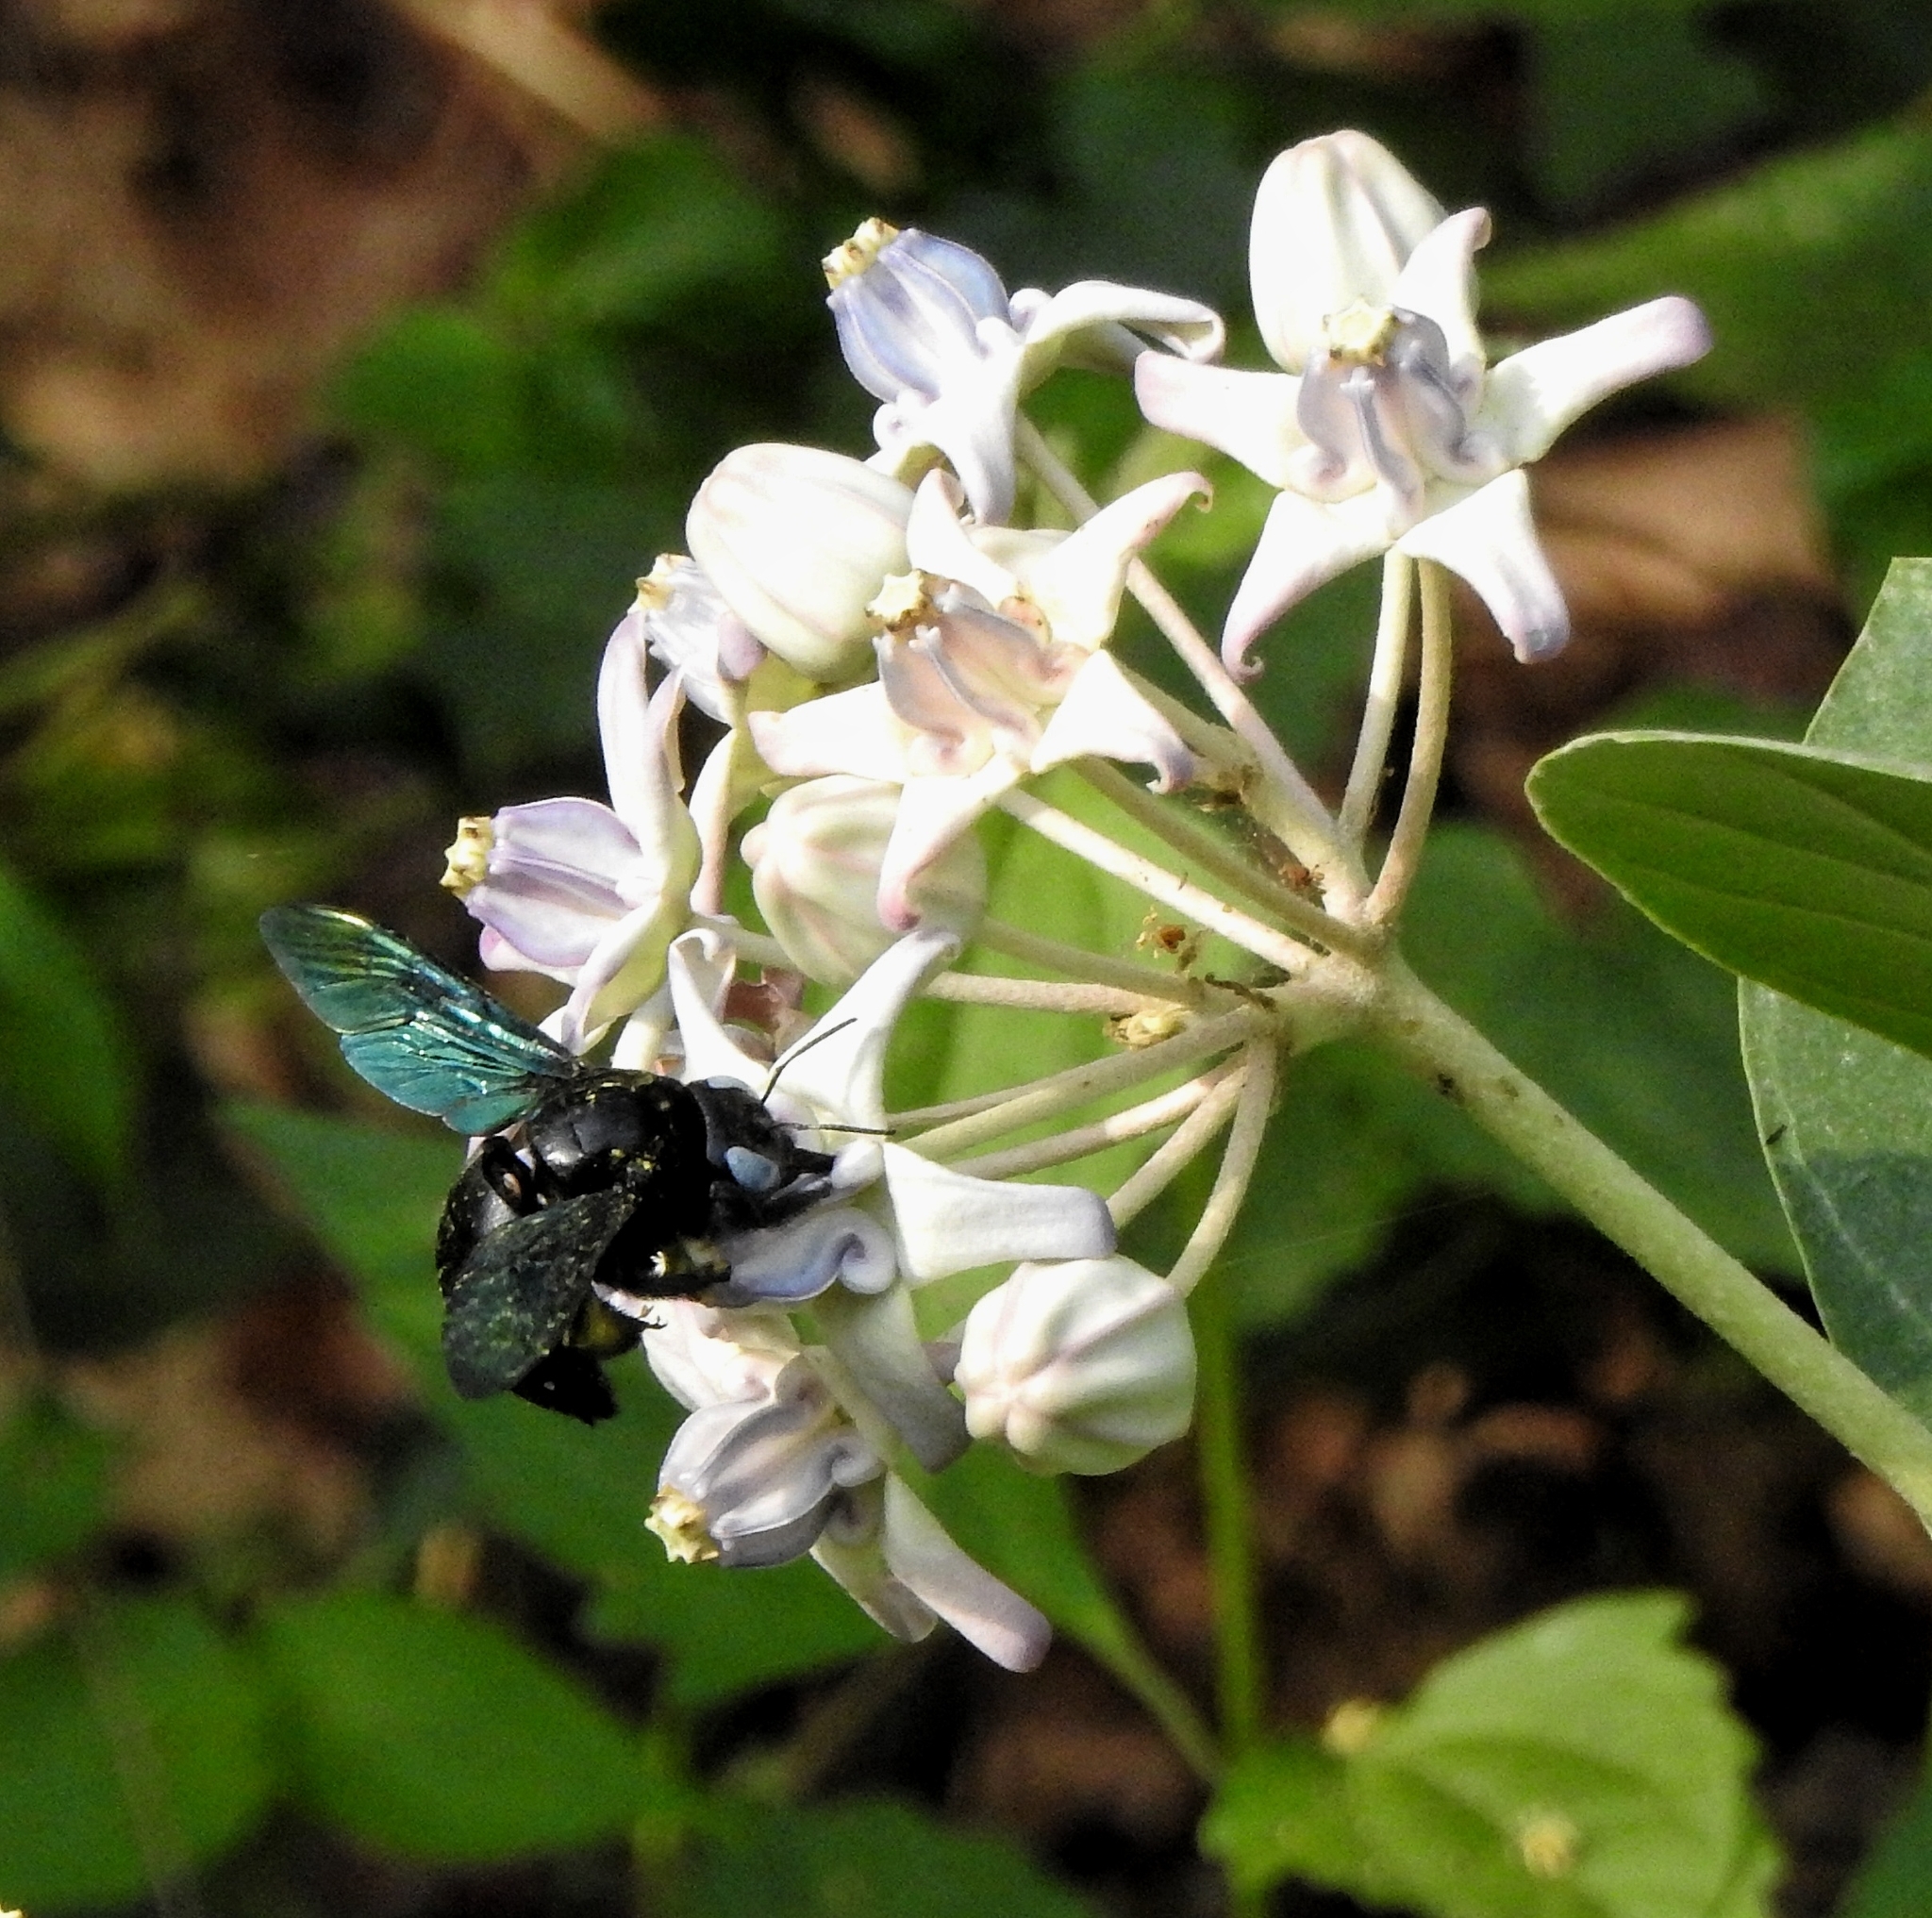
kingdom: Animalia
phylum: Arthropoda
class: Insecta
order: Hymenoptera
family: Apidae
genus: Xylocopa
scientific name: Xylocopa tenuiscapa
